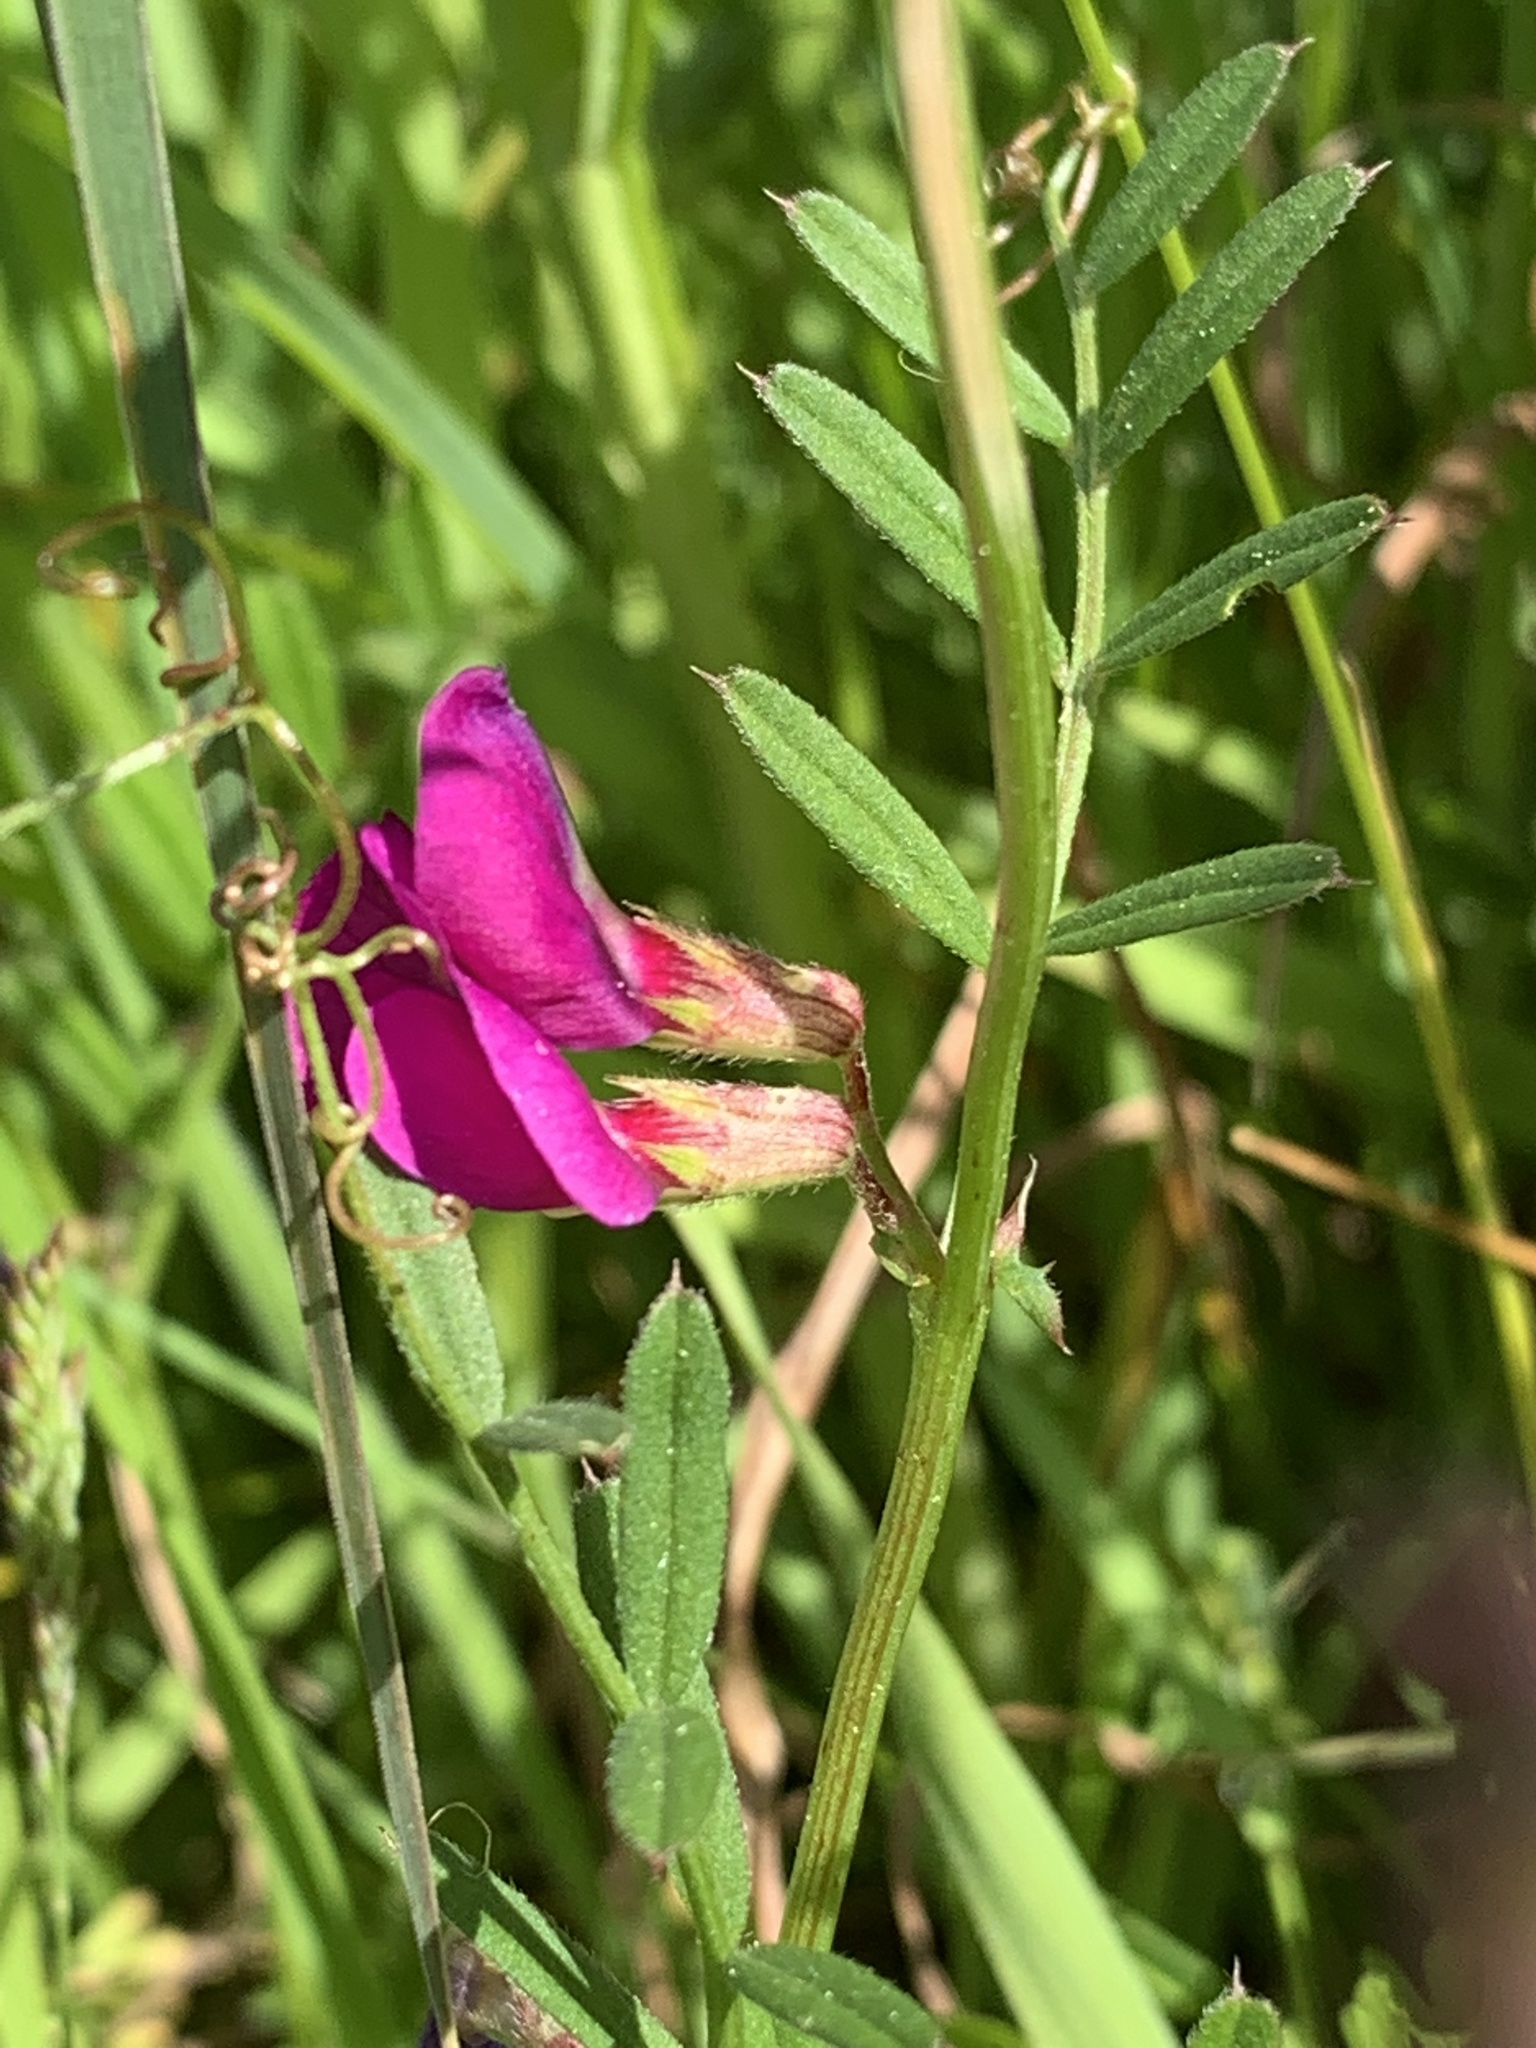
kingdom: Plantae
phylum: Tracheophyta
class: Magnoliopsida
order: Fabales
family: Fabaceae
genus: Vicia
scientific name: Vicia sativa
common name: Garden vetch
